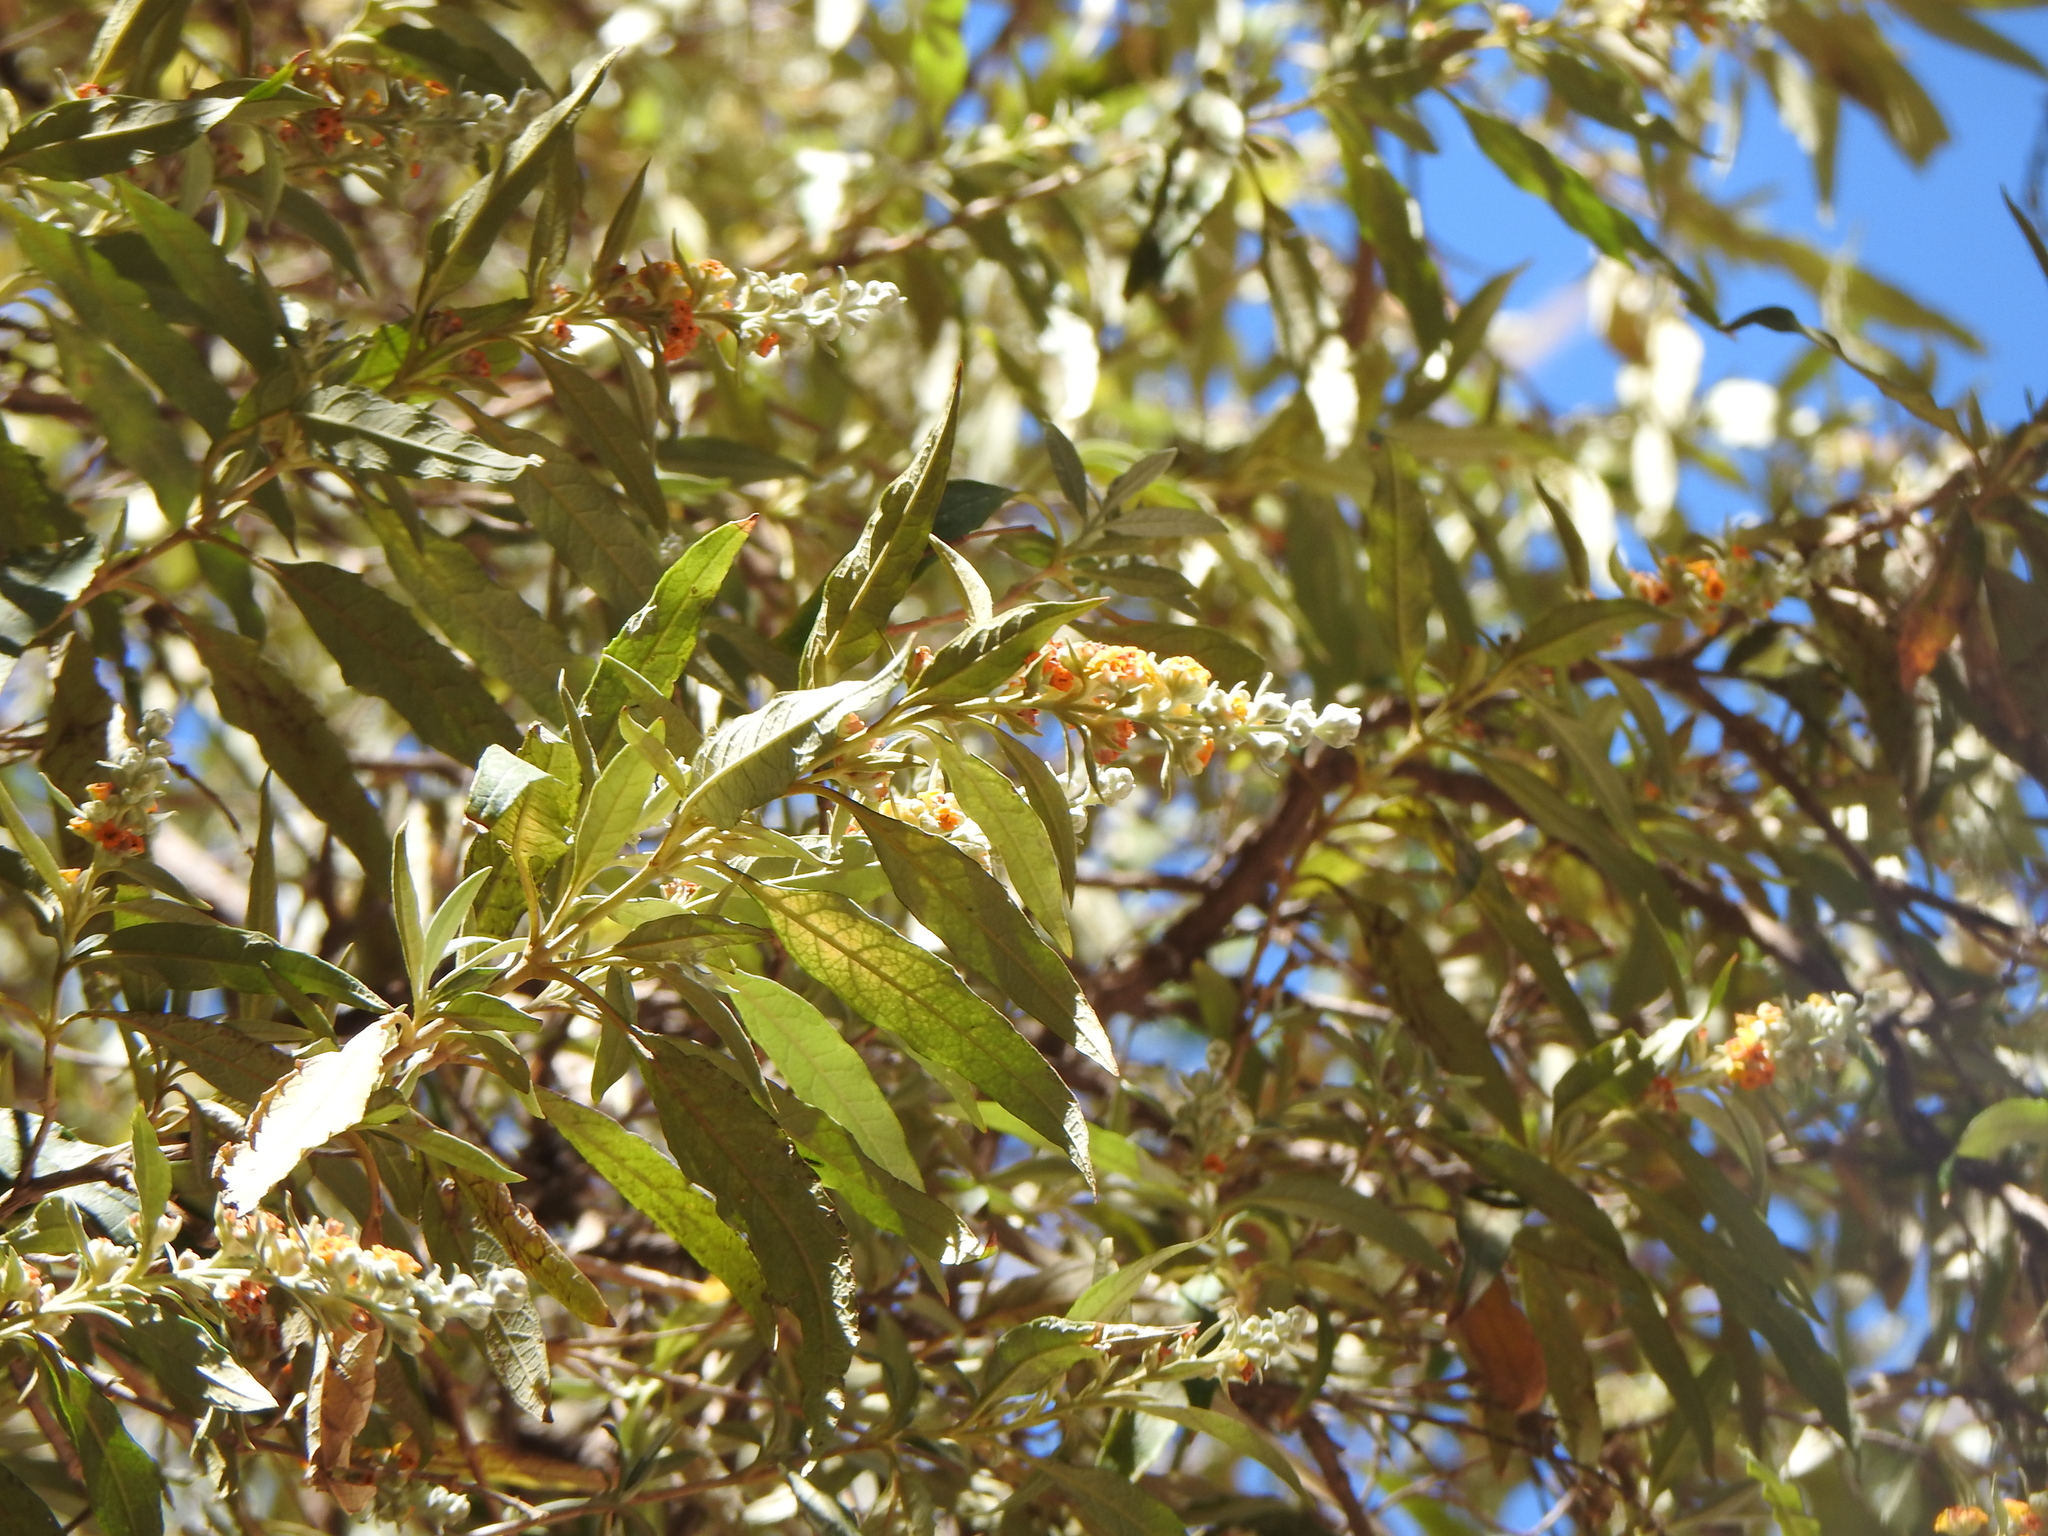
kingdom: Plantae
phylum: Tracheophyta
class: Magnoliopsida
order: Lamiales
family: Scrophulariaceae
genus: Buddleja
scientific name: Buddleja tucumanensis
